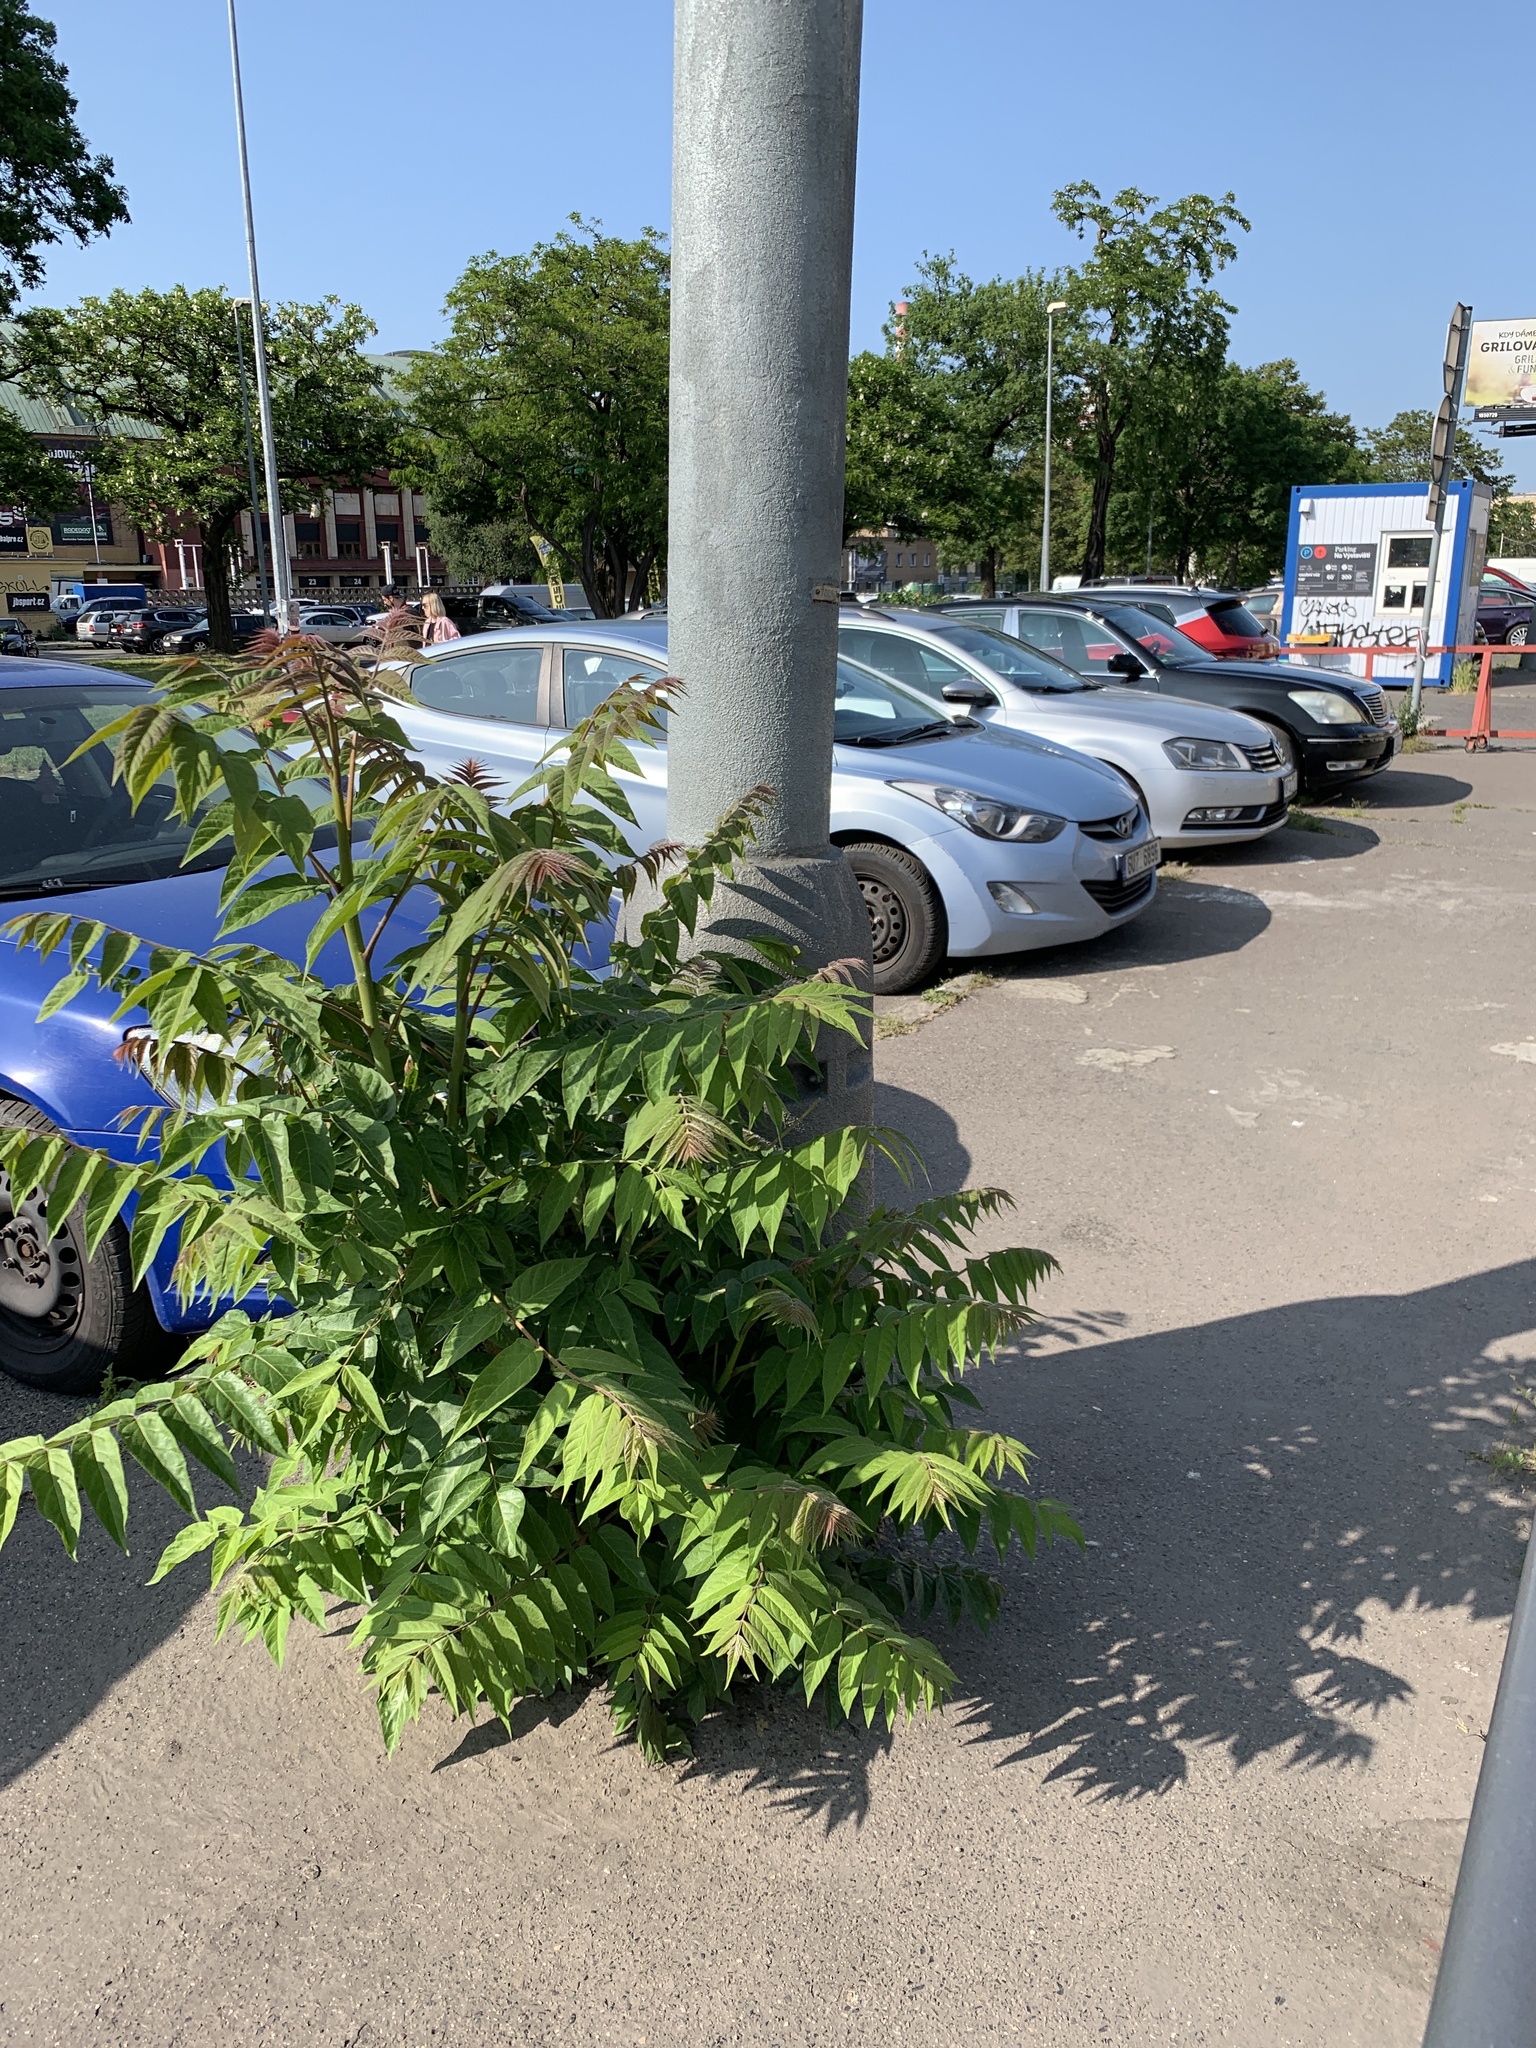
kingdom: Plantae
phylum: Tracheophyta
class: Magnoliopsida
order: Sapindales
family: Simaroubaceae
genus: Ailanthus
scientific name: Ailanthus altissima
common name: Tree-of-heaven
